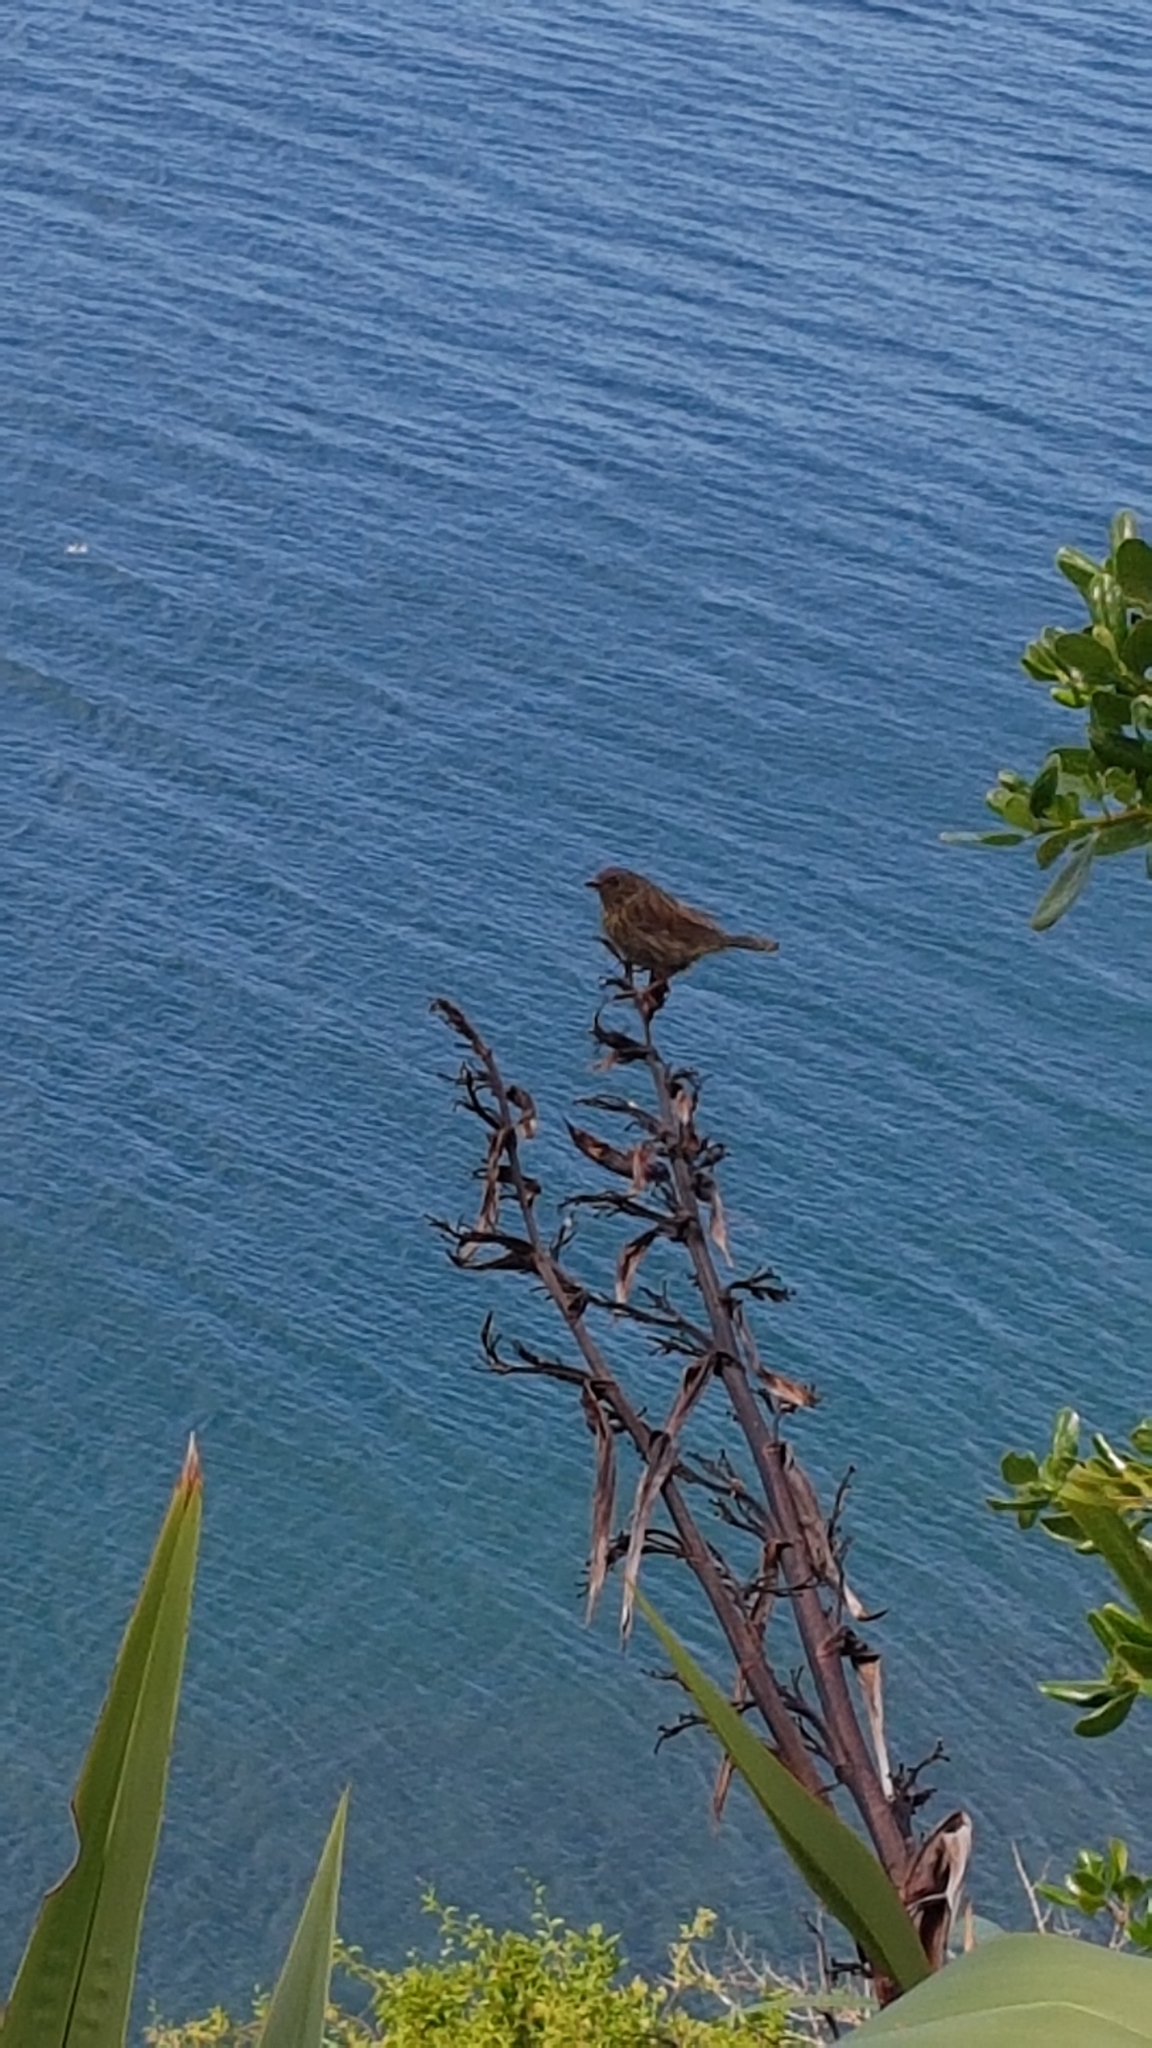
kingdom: Animalia
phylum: Chordata
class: Aves
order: Passeriformes
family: Prunellidae
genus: Prunella
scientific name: Prunella modularis
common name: Dunnock
